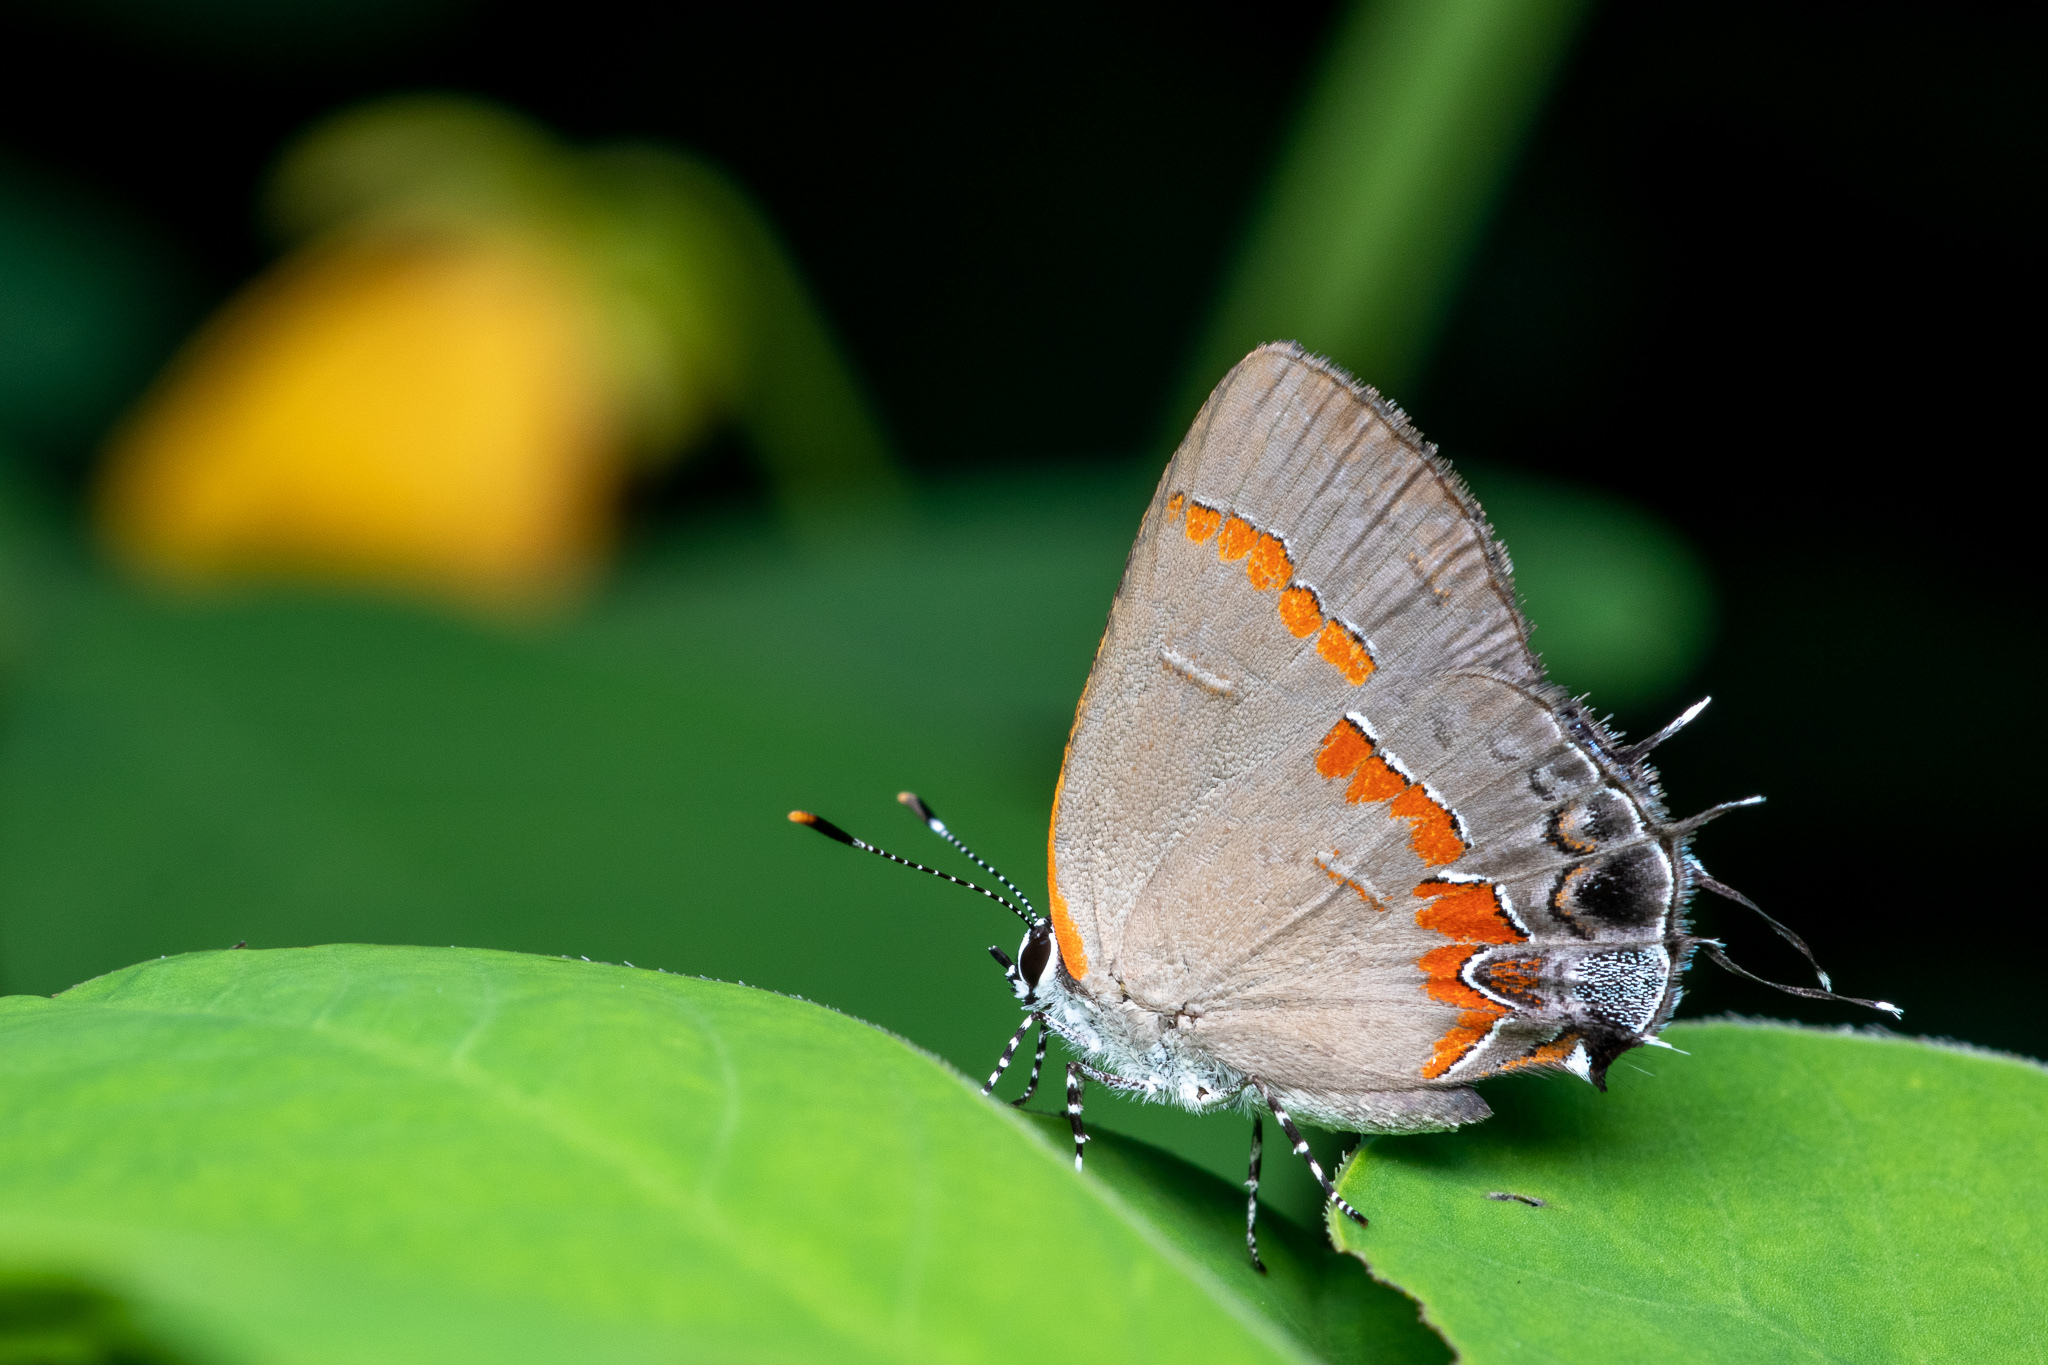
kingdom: Animalia
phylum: Arthropoda
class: Insecta
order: Lepidoptera
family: Lycaenidae
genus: Calycopis
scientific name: Calycopis cecrops
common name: Red-banded hairstreak
